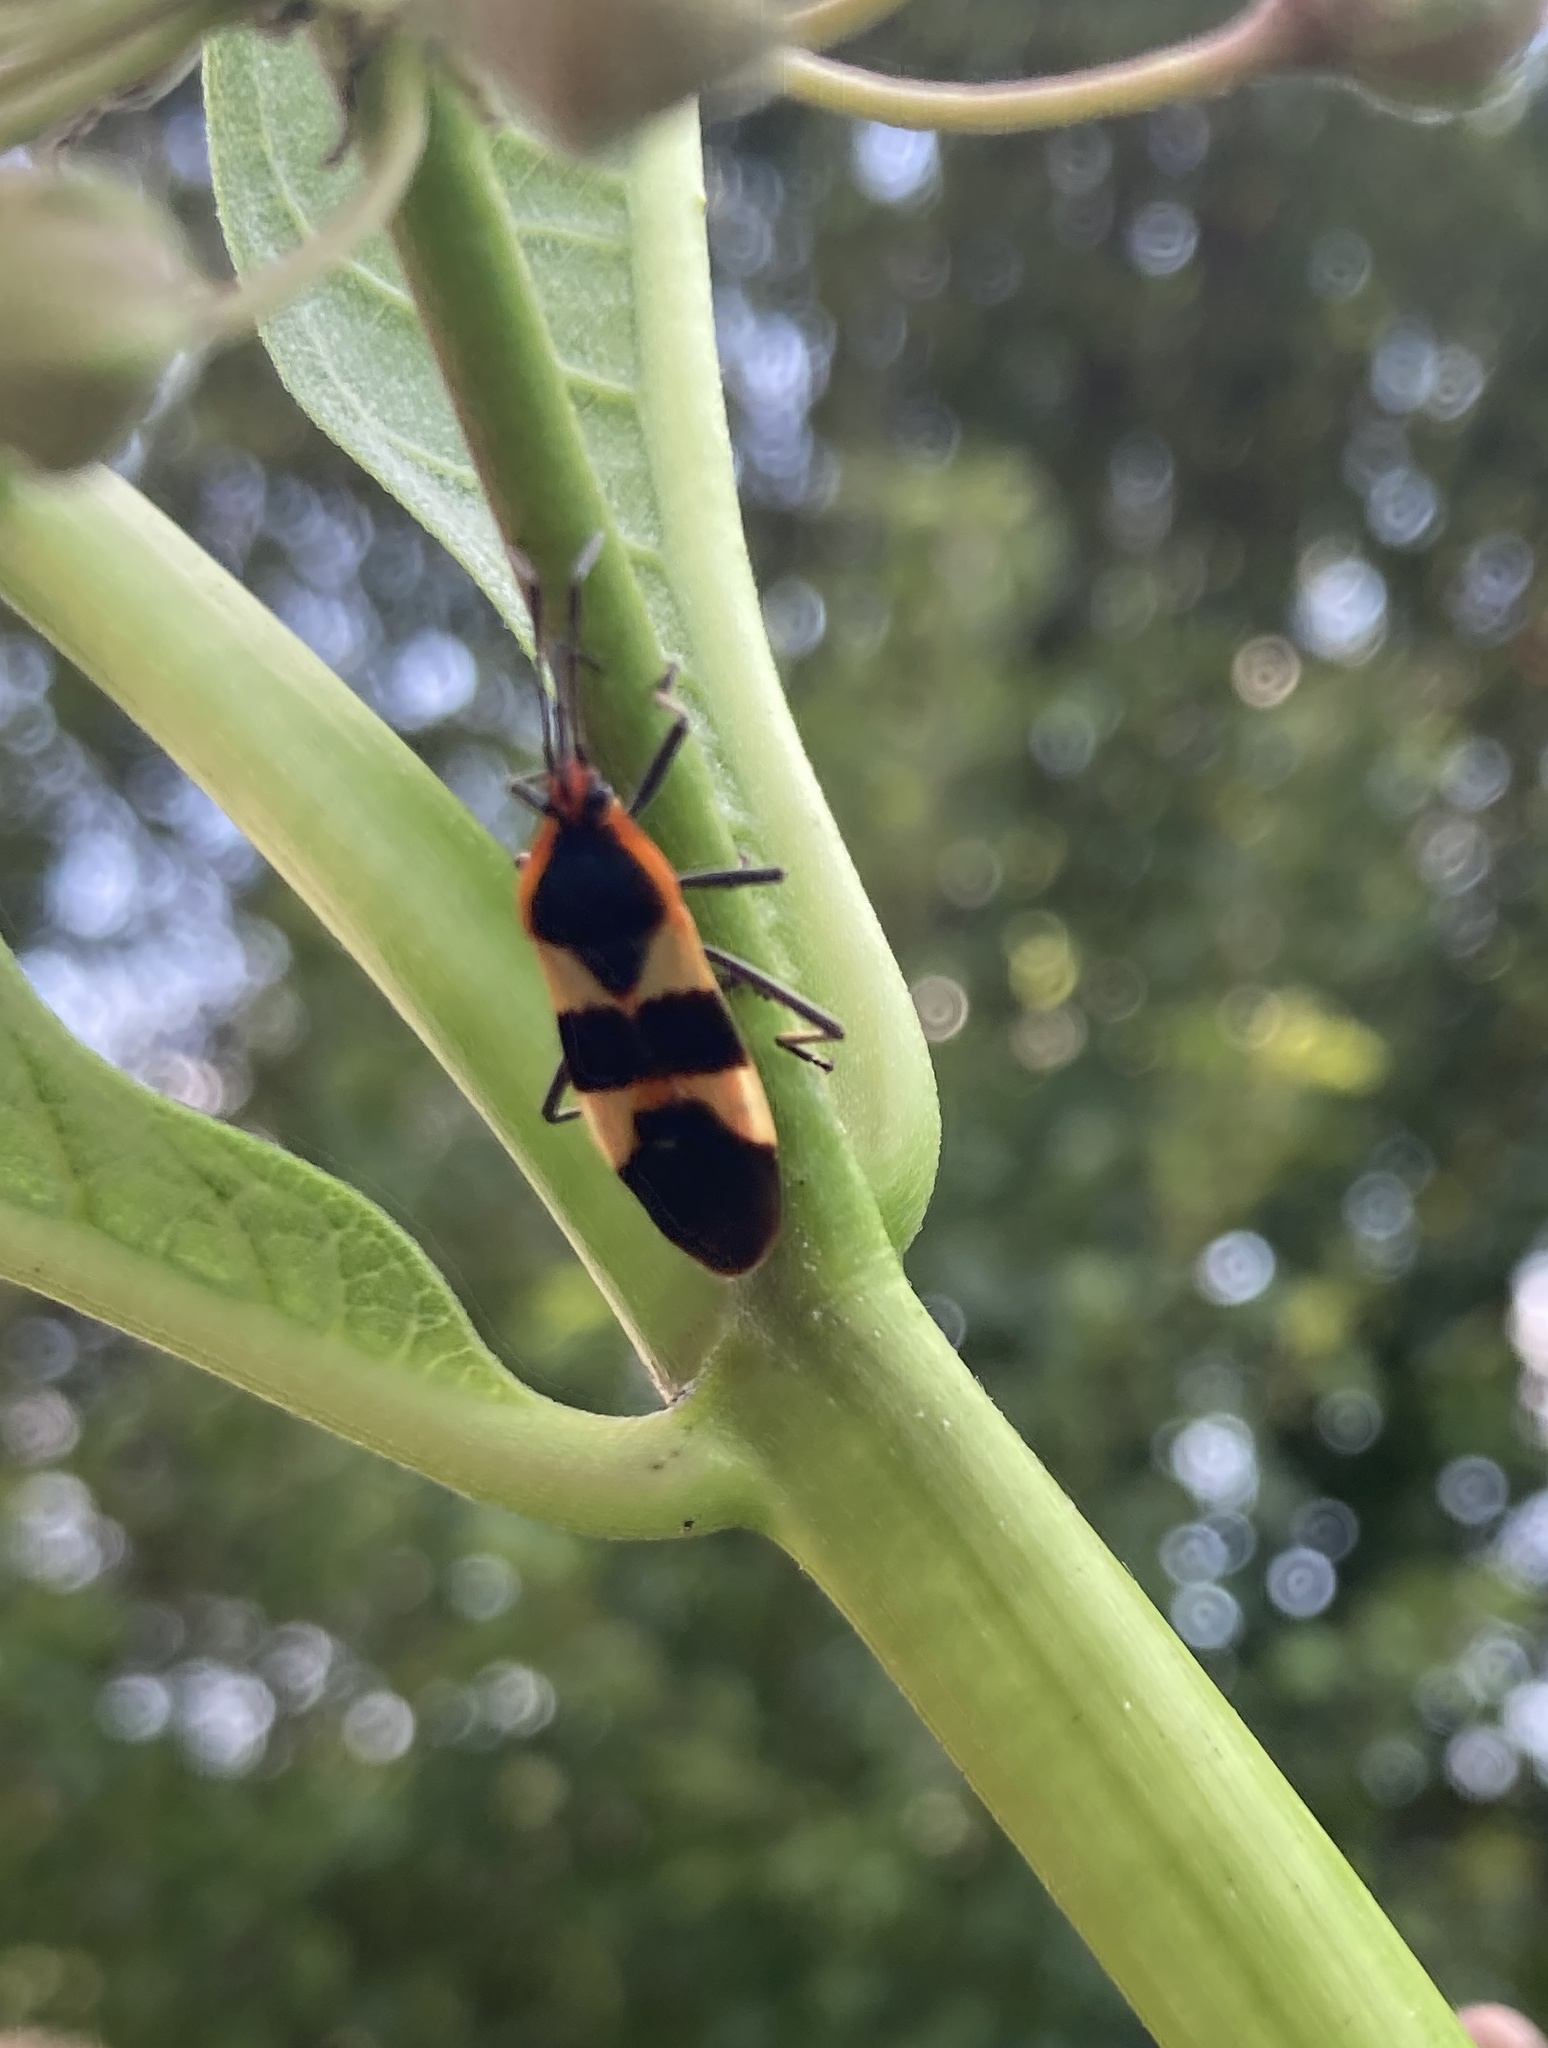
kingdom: Animalia
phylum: Arthropoda
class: Insecta
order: Hemiptera
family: Lygaeidae
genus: Oncopeltus
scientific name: Oncopeltus fasciatus
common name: Large milkweed bug
